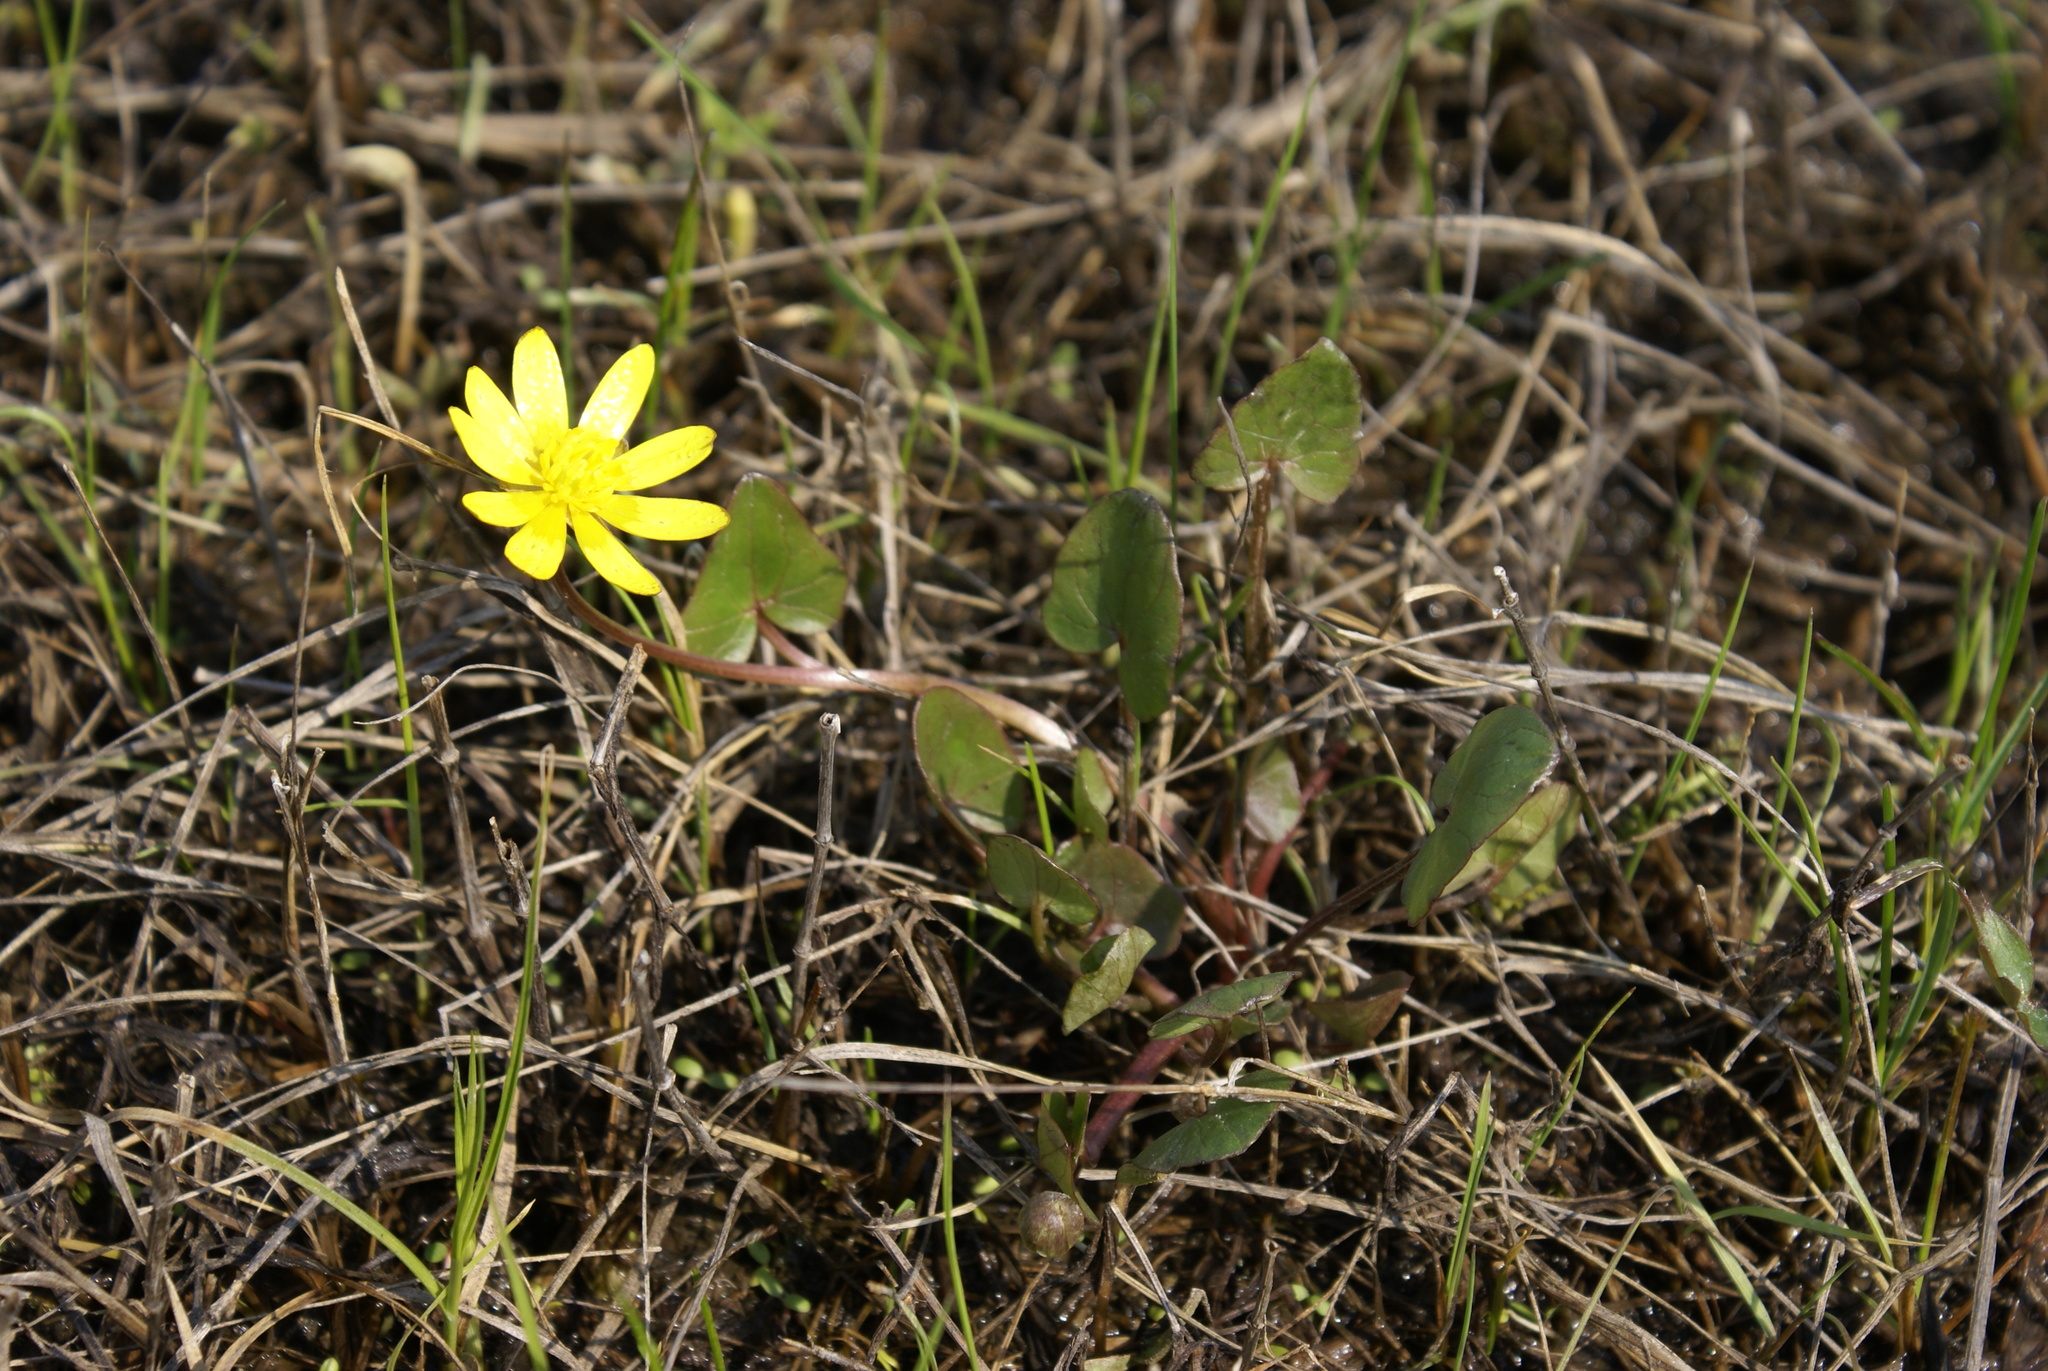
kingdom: Plantae
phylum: Tracheophyta
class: Magnoliopsida
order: Ranunculales
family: Ranunculaceae
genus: Ficaria
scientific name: Ficaria verna
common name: Lesser celandine
